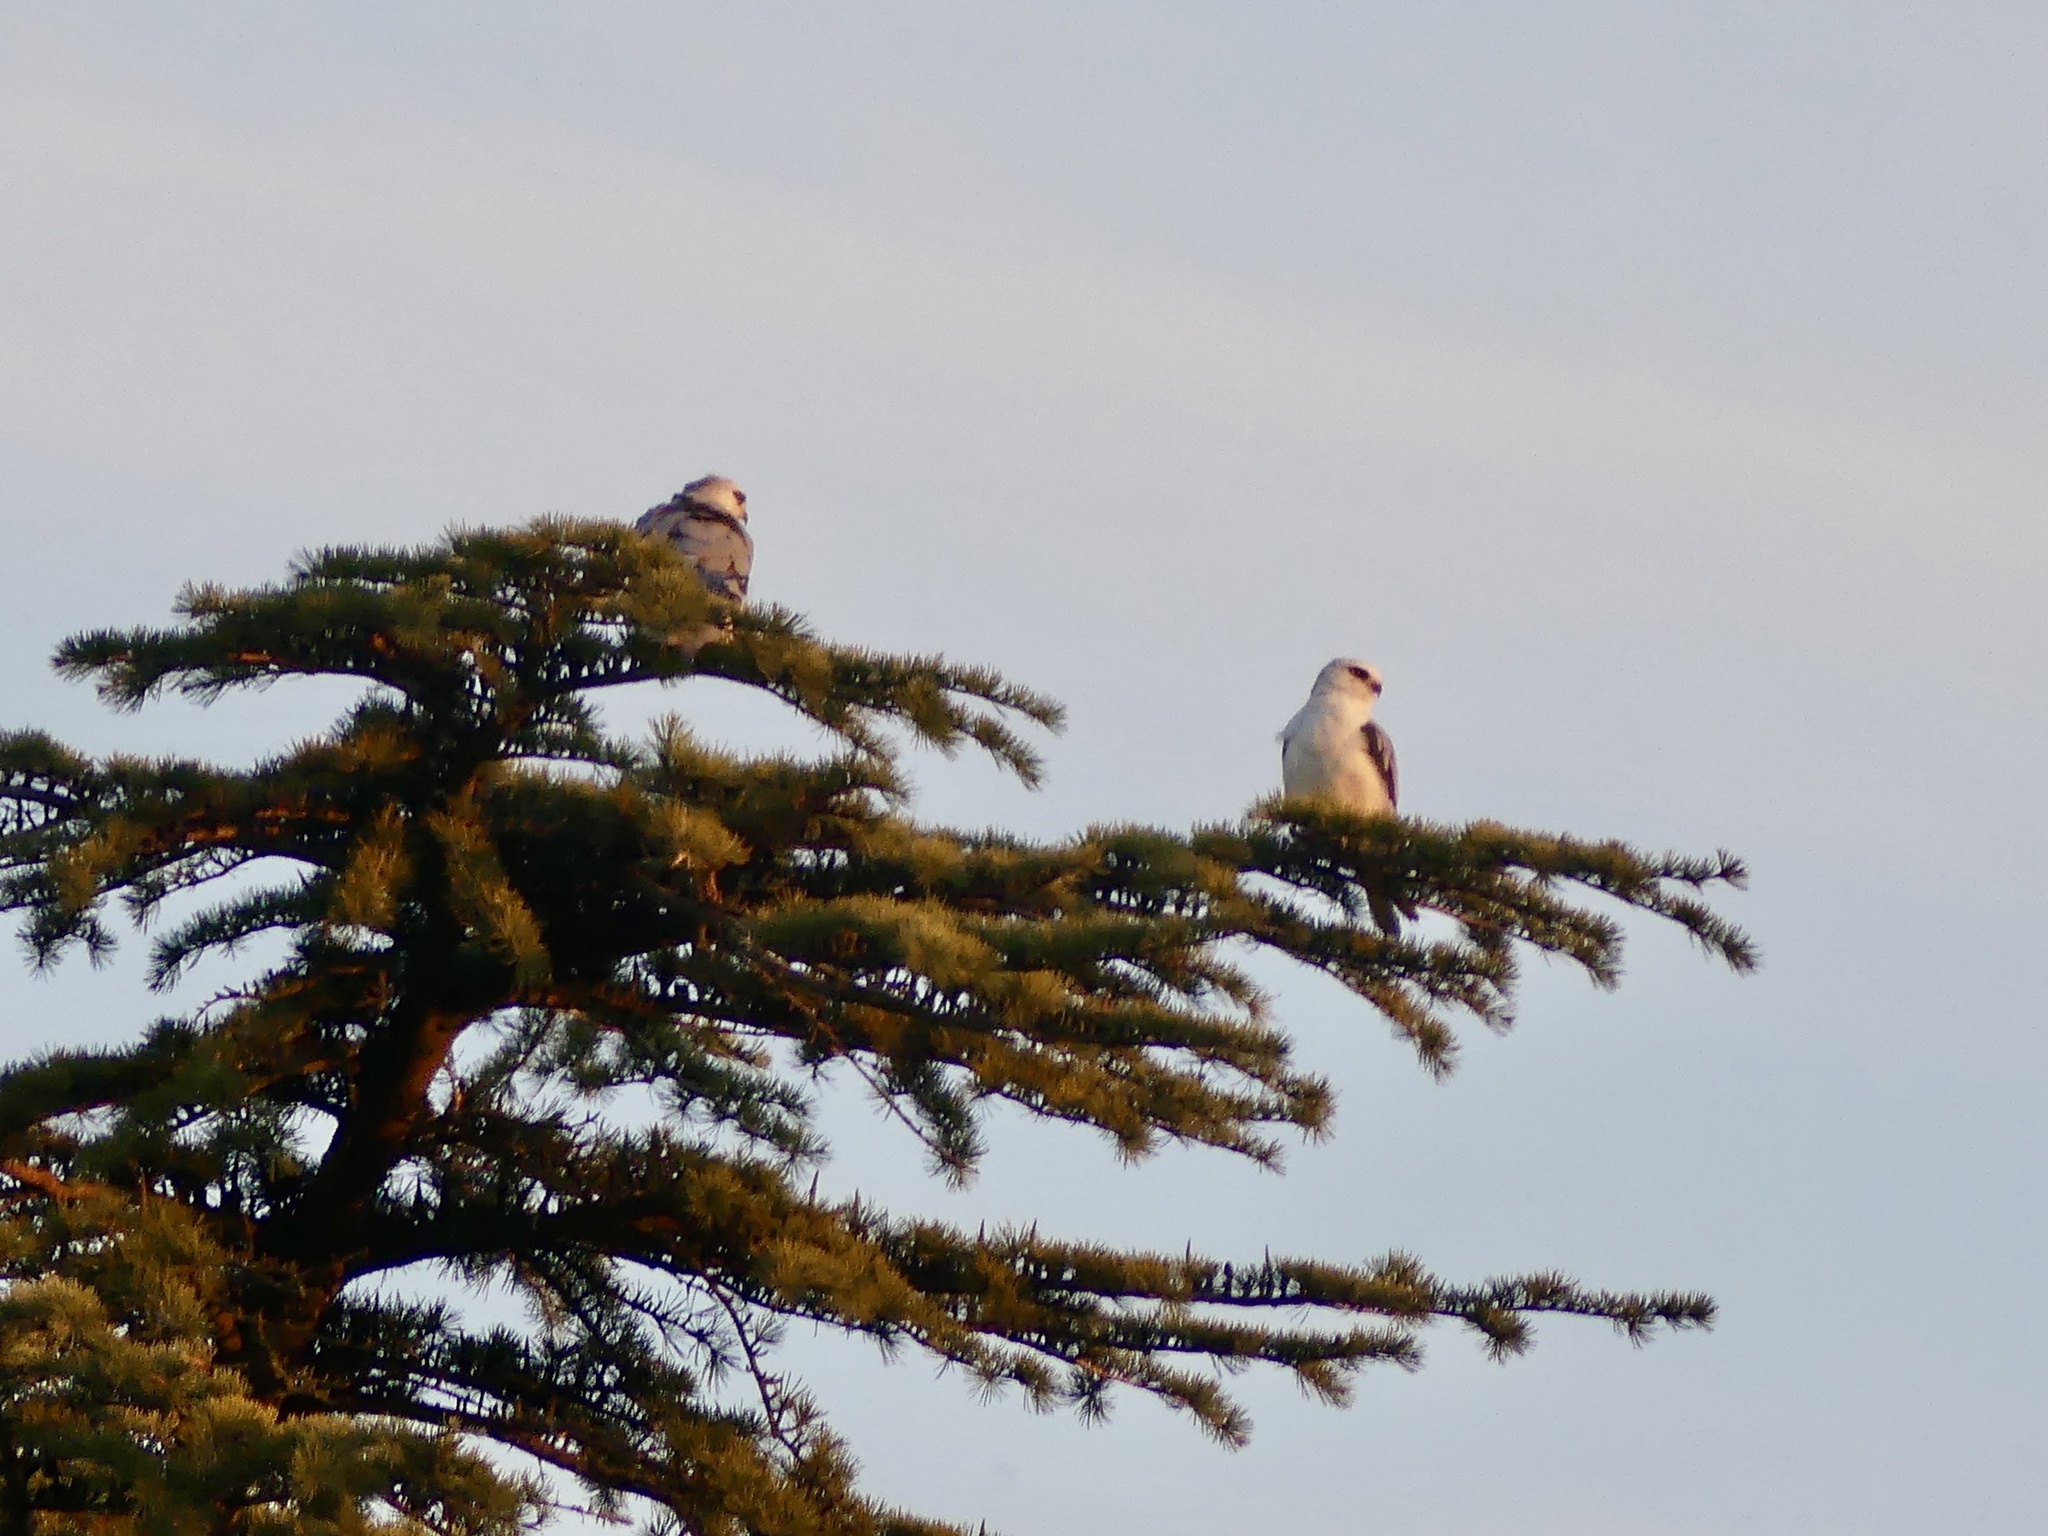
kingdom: Animalia
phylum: Chordata
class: Aves
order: Accipitriformes
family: Accipitridae
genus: Elanus
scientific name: Elanus leucurus
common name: White-tailed kite
